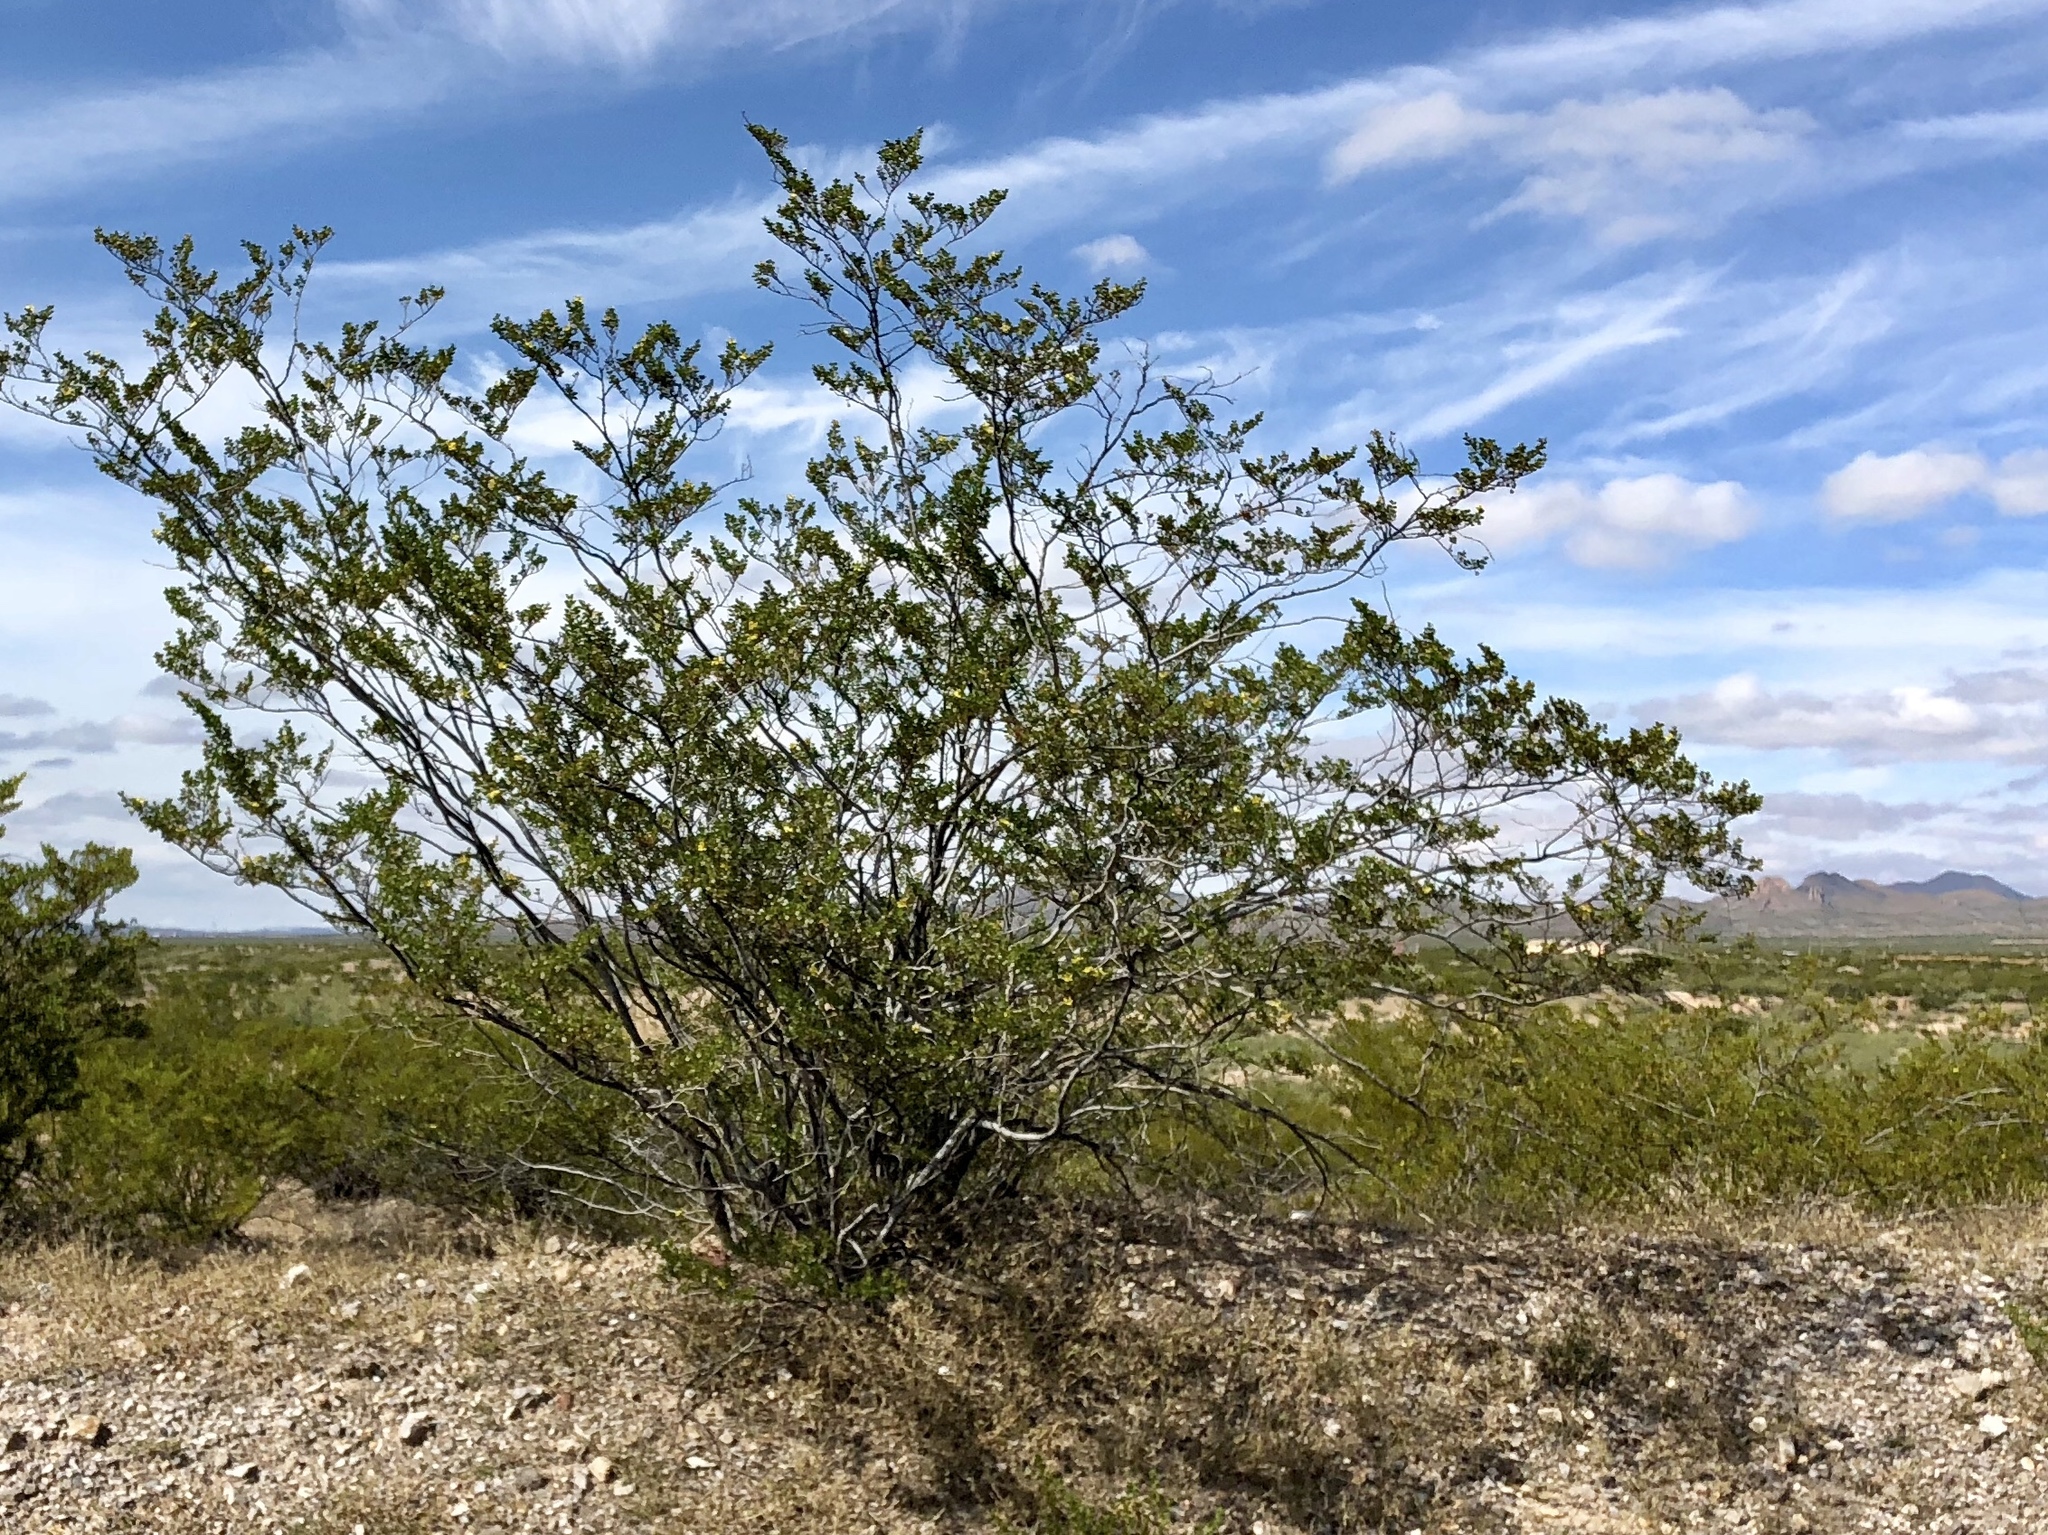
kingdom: Plantae
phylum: Tracheophyta
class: Magnoliopsida
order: Zygophyllales
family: Zygophyllaceae
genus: Larrea
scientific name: Larrea tridentata
